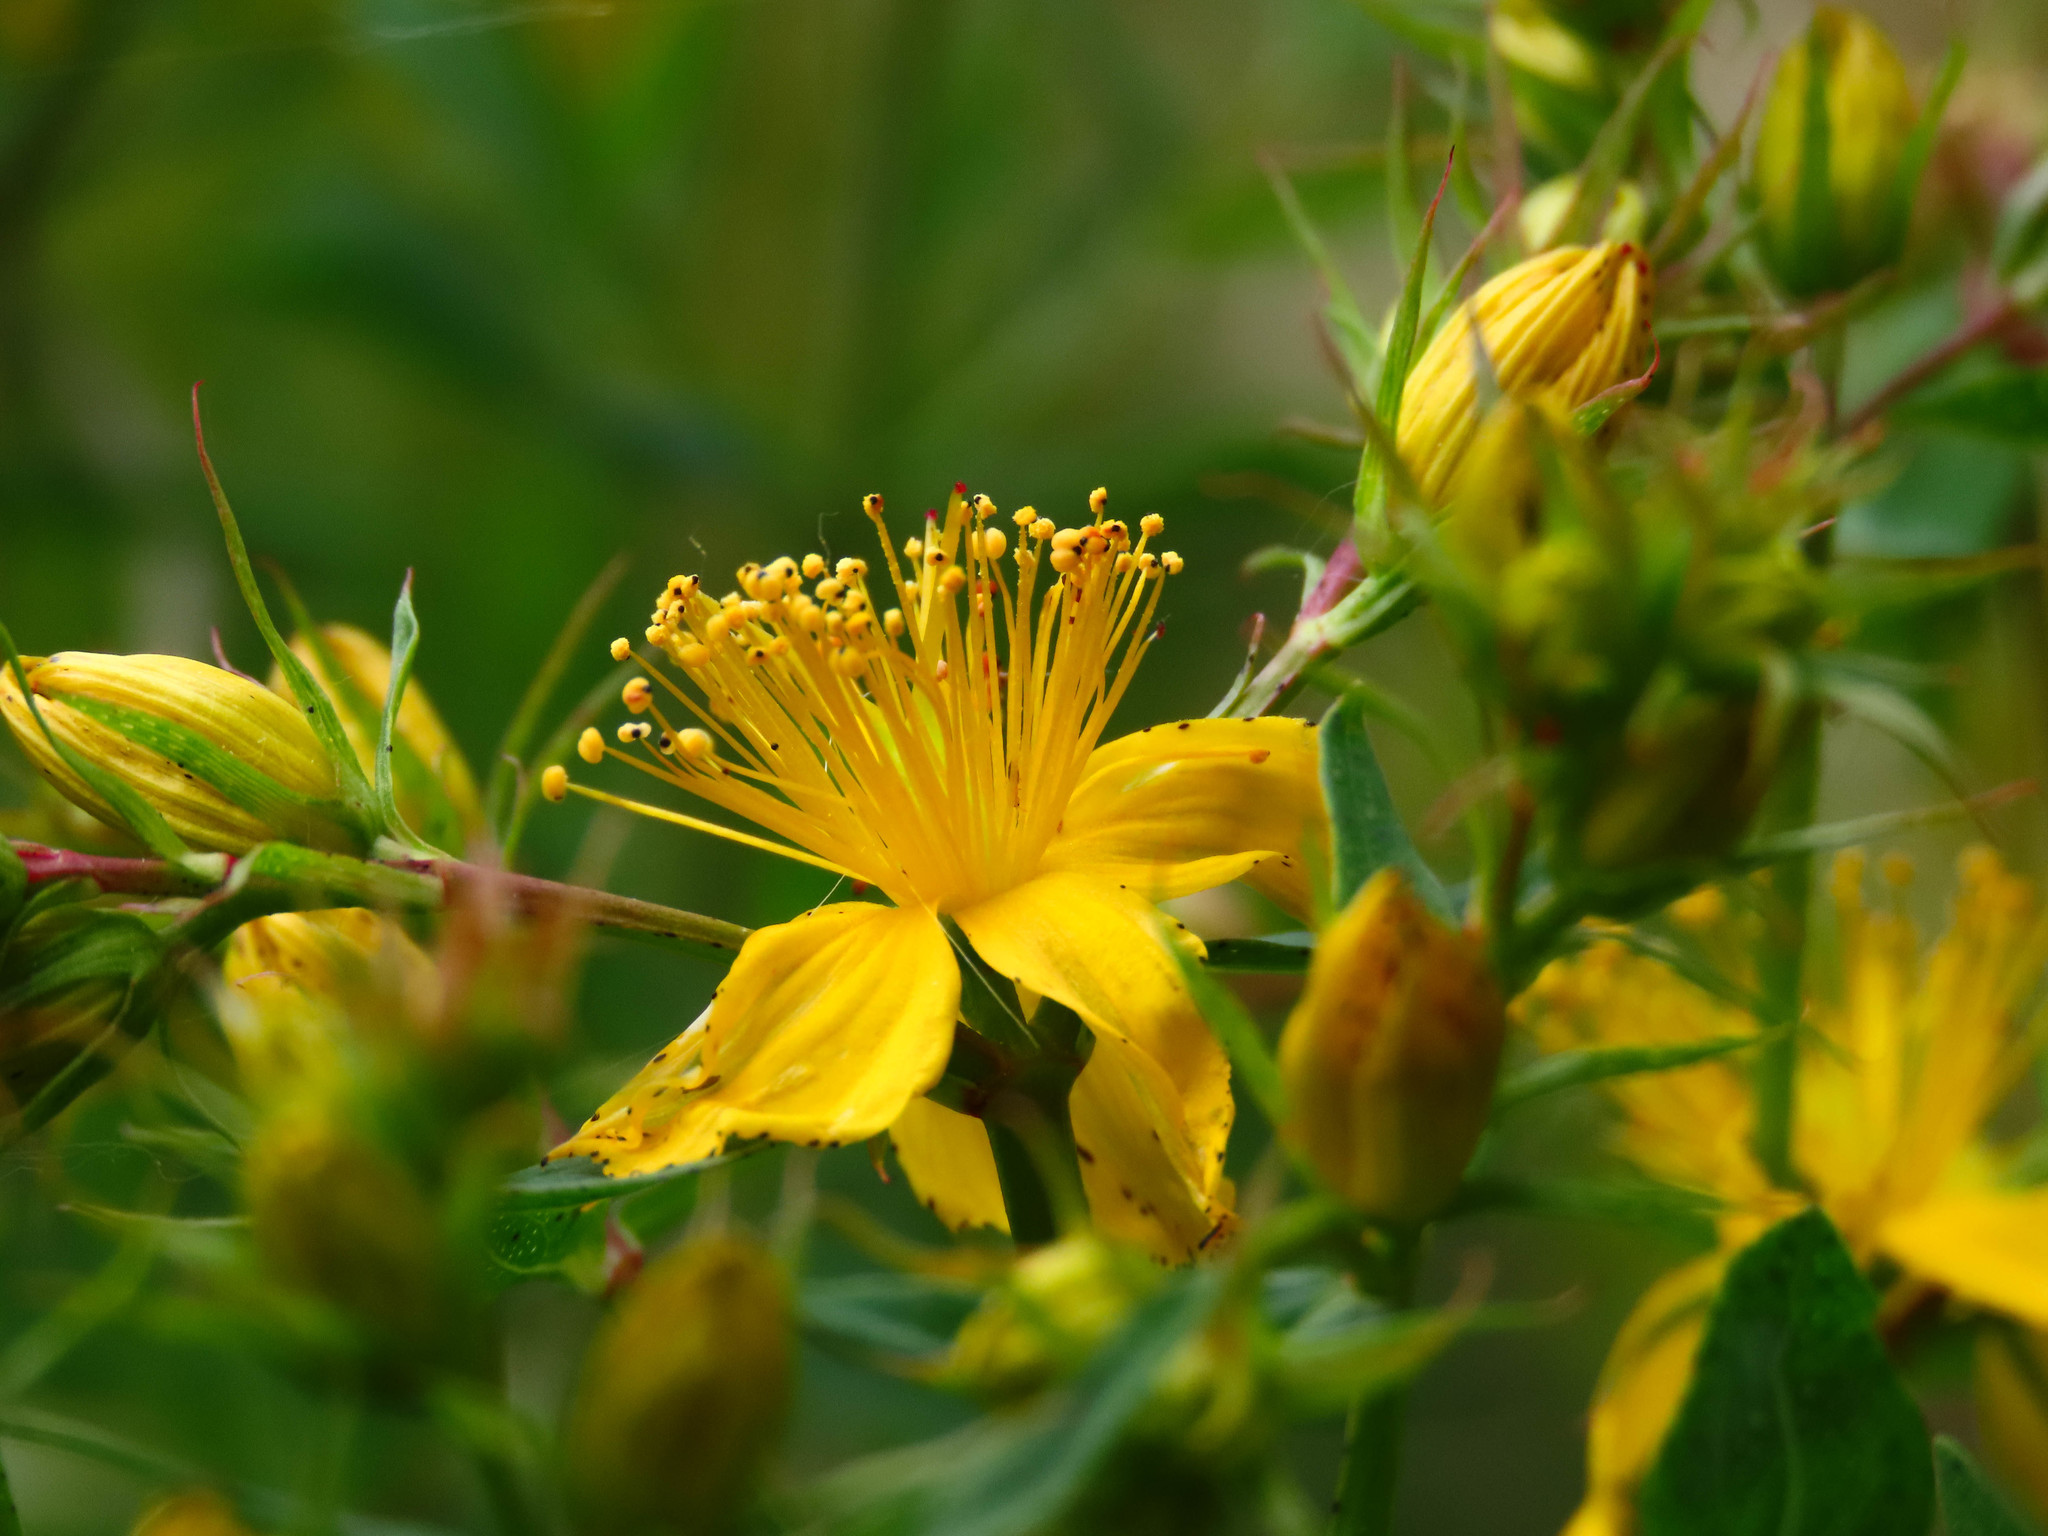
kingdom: Plantae
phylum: Tracheophyta
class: Magnoliopsida
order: Malpighiales
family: Hypericaceae
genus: Hypericum
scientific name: Hypericum perforatum
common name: Common st. johnswort
